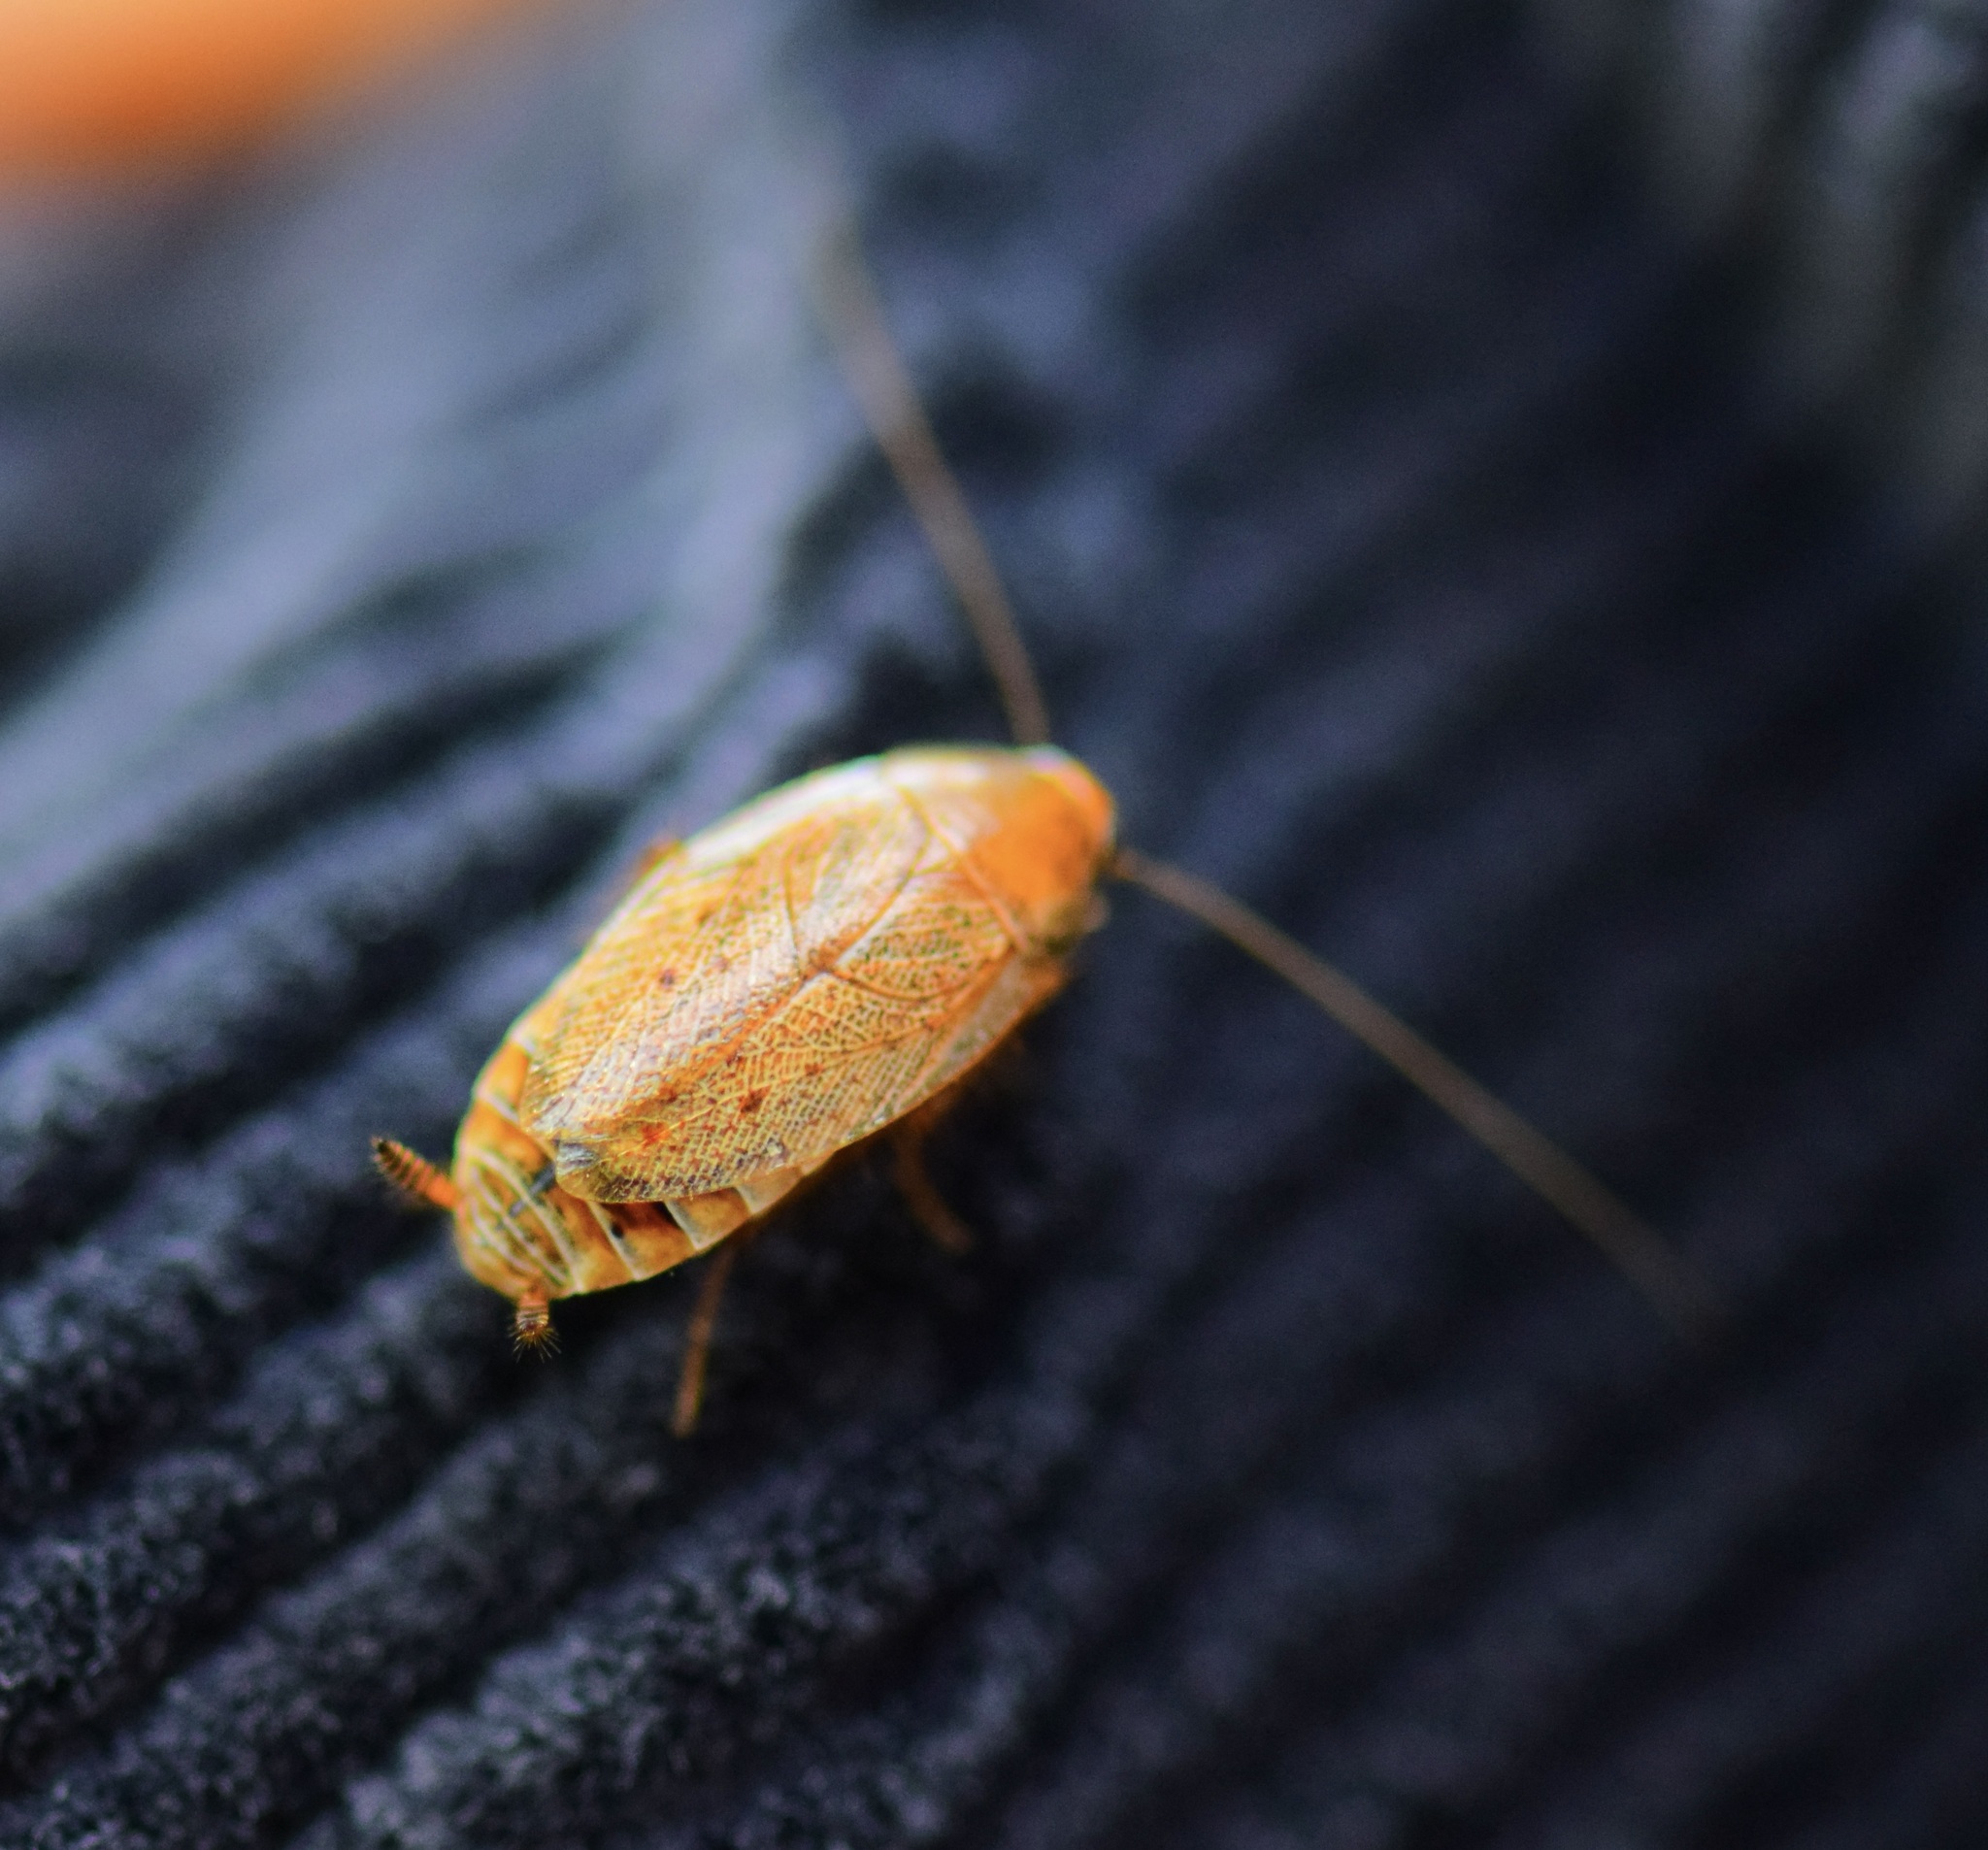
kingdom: Animalia
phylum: Arthropoda
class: Insecta
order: Blattodea
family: Ectobiidae
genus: Ectobius
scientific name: Ectobius lapponicus
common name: Dusky cockroach
